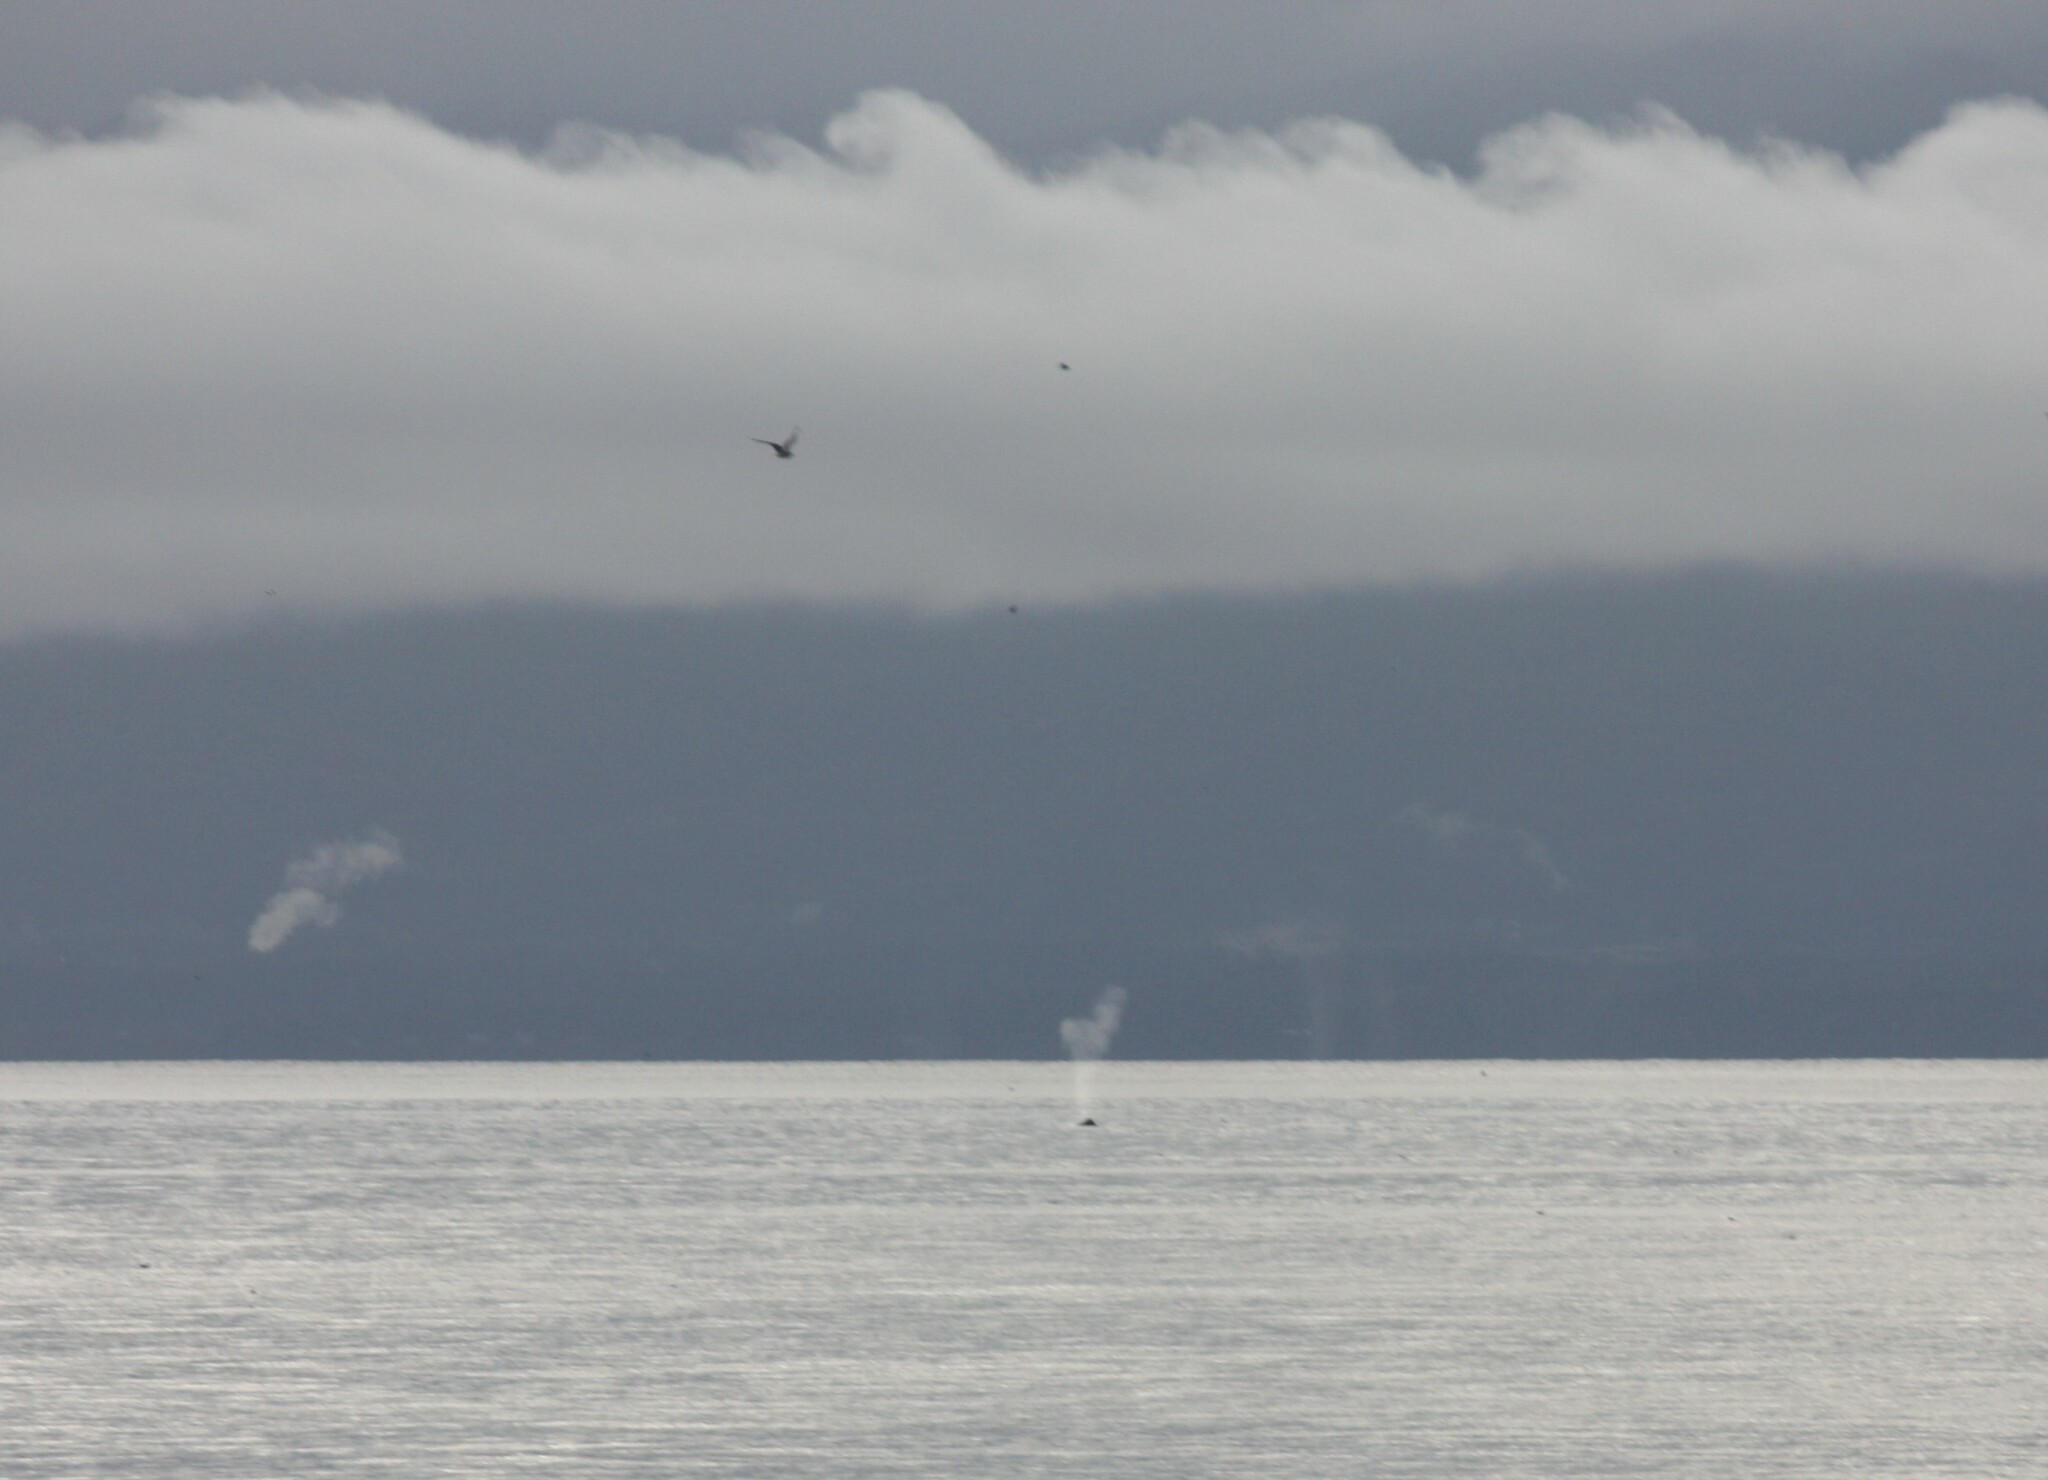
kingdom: Animalia
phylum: Chordata
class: Mammalia
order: Cetacea
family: Balaenopteridae
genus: Megaptera
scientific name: Megaptera novaeangliae
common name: Humpback whale
